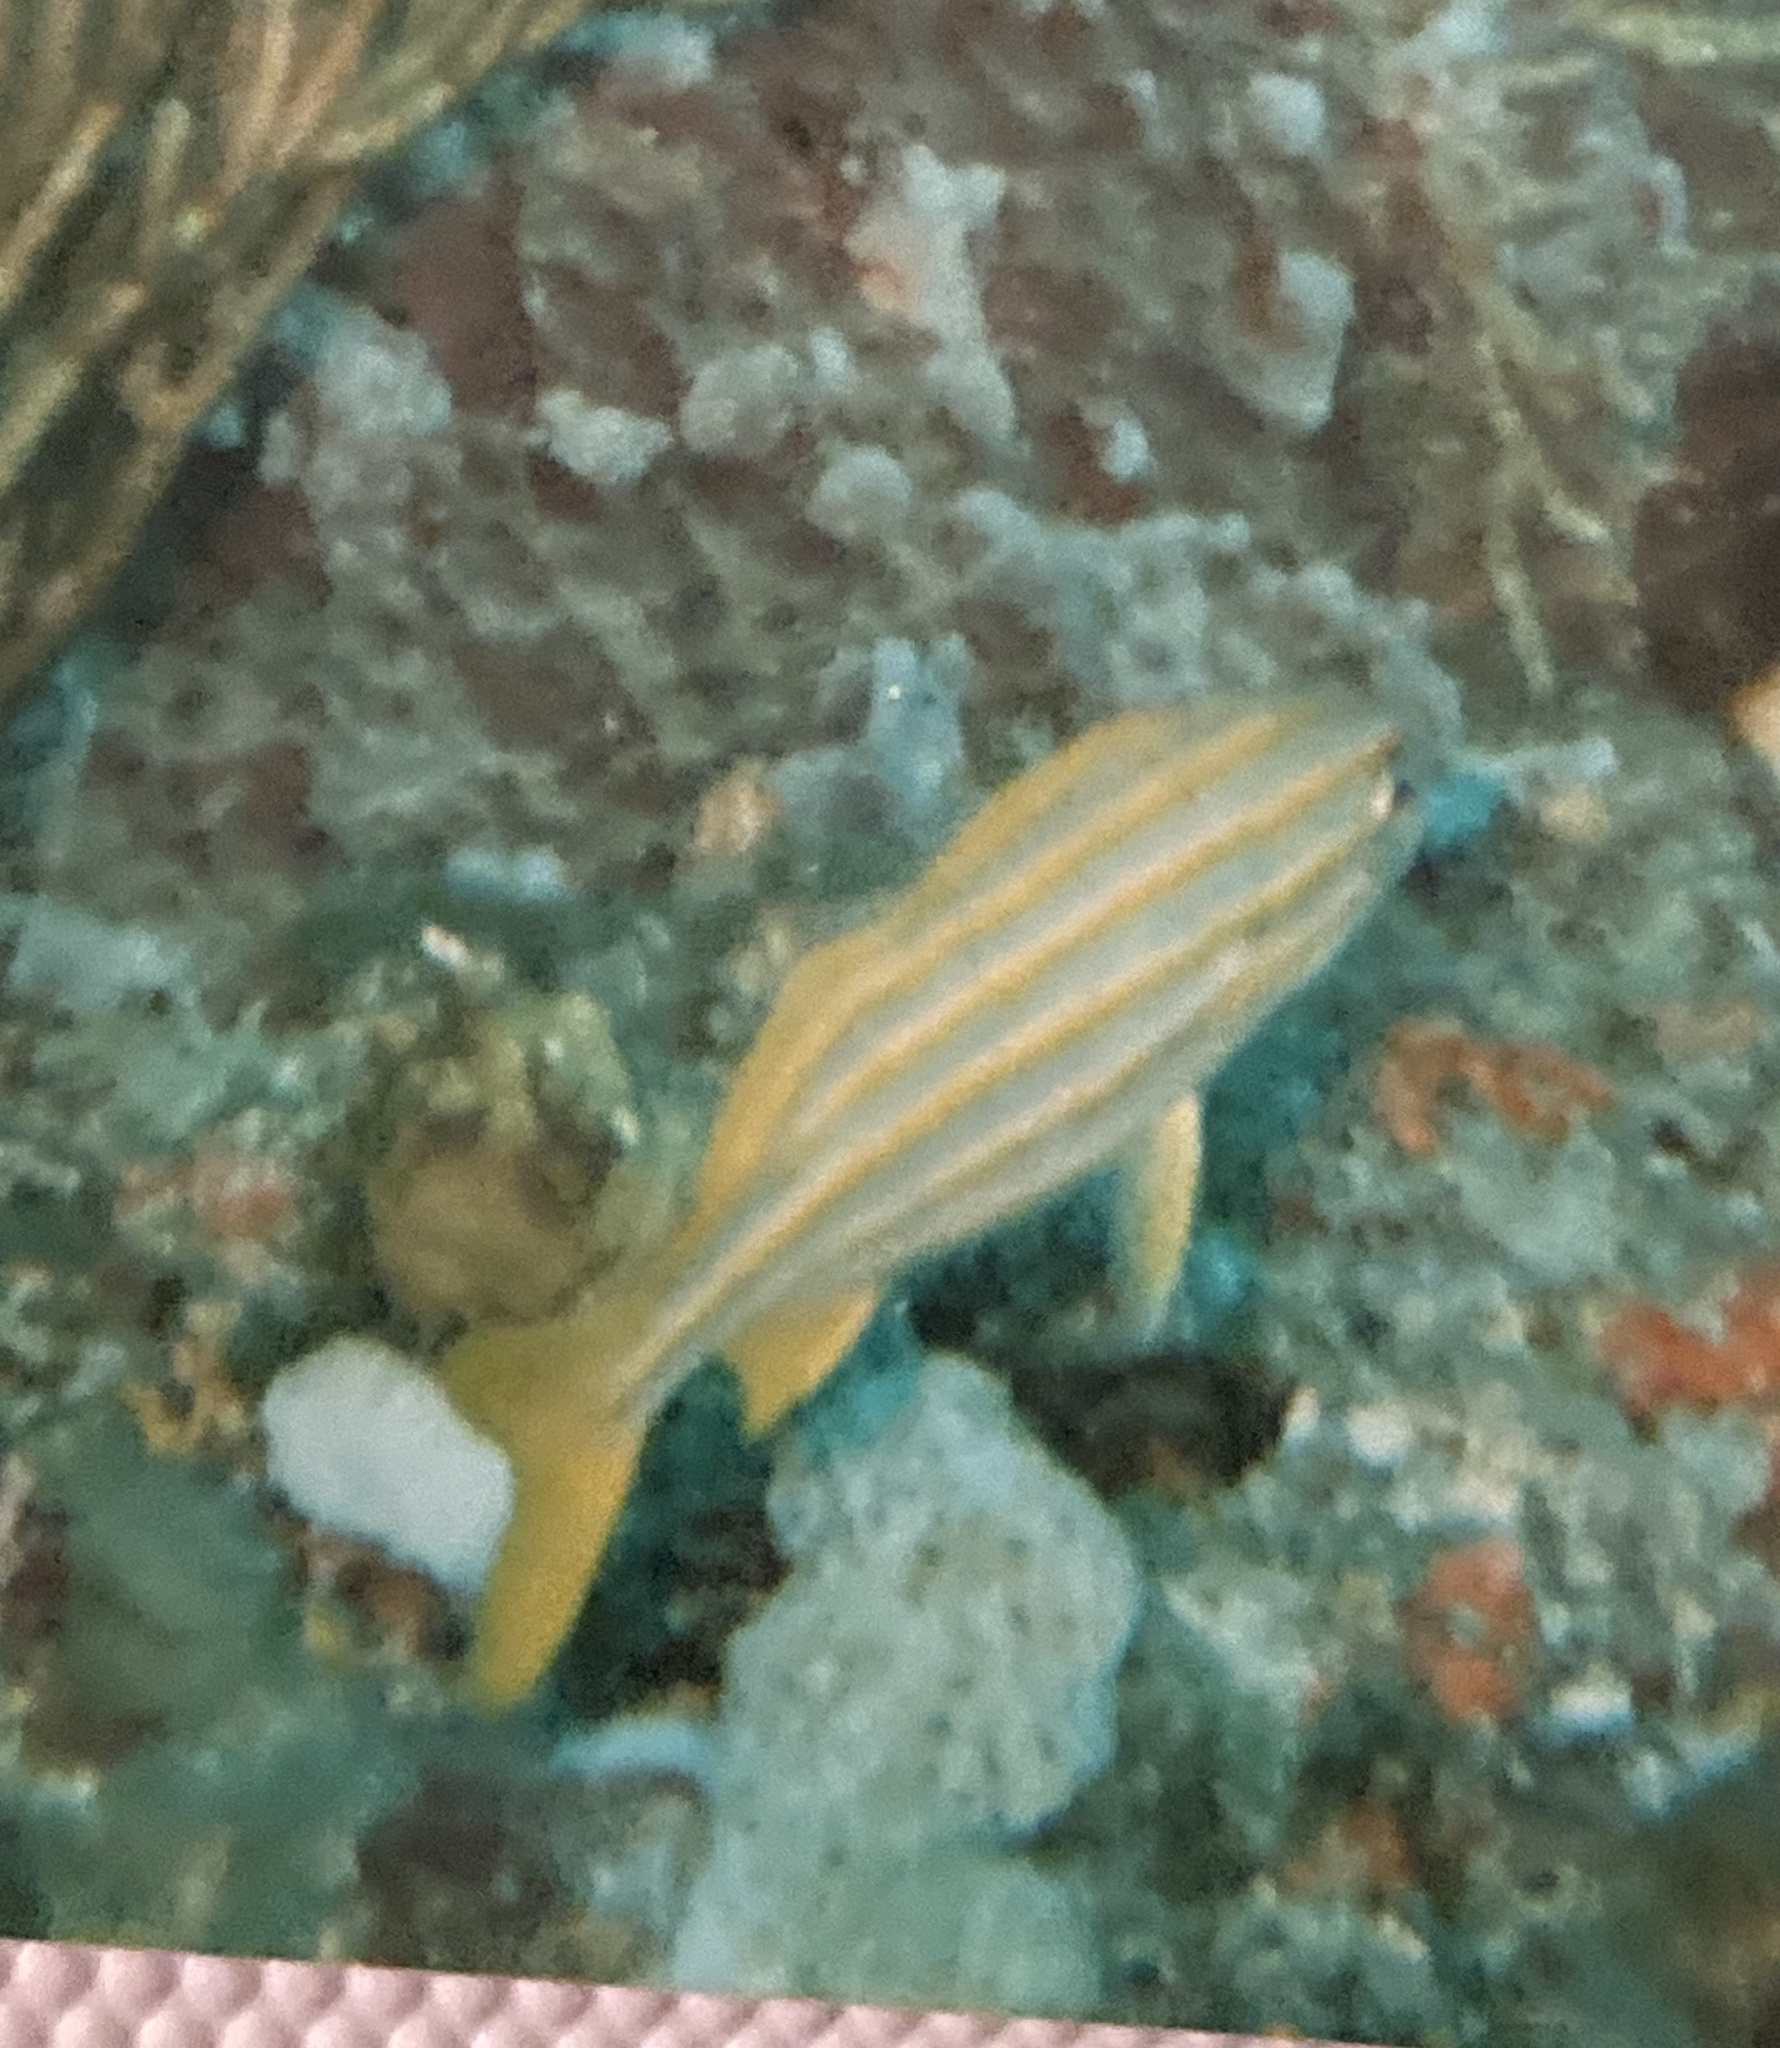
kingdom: Animalia
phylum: Chordata
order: Perciformes
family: Haemulidae
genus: Haemulon
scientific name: Haemulon chrysargyreum
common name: Smallmouth grunt
